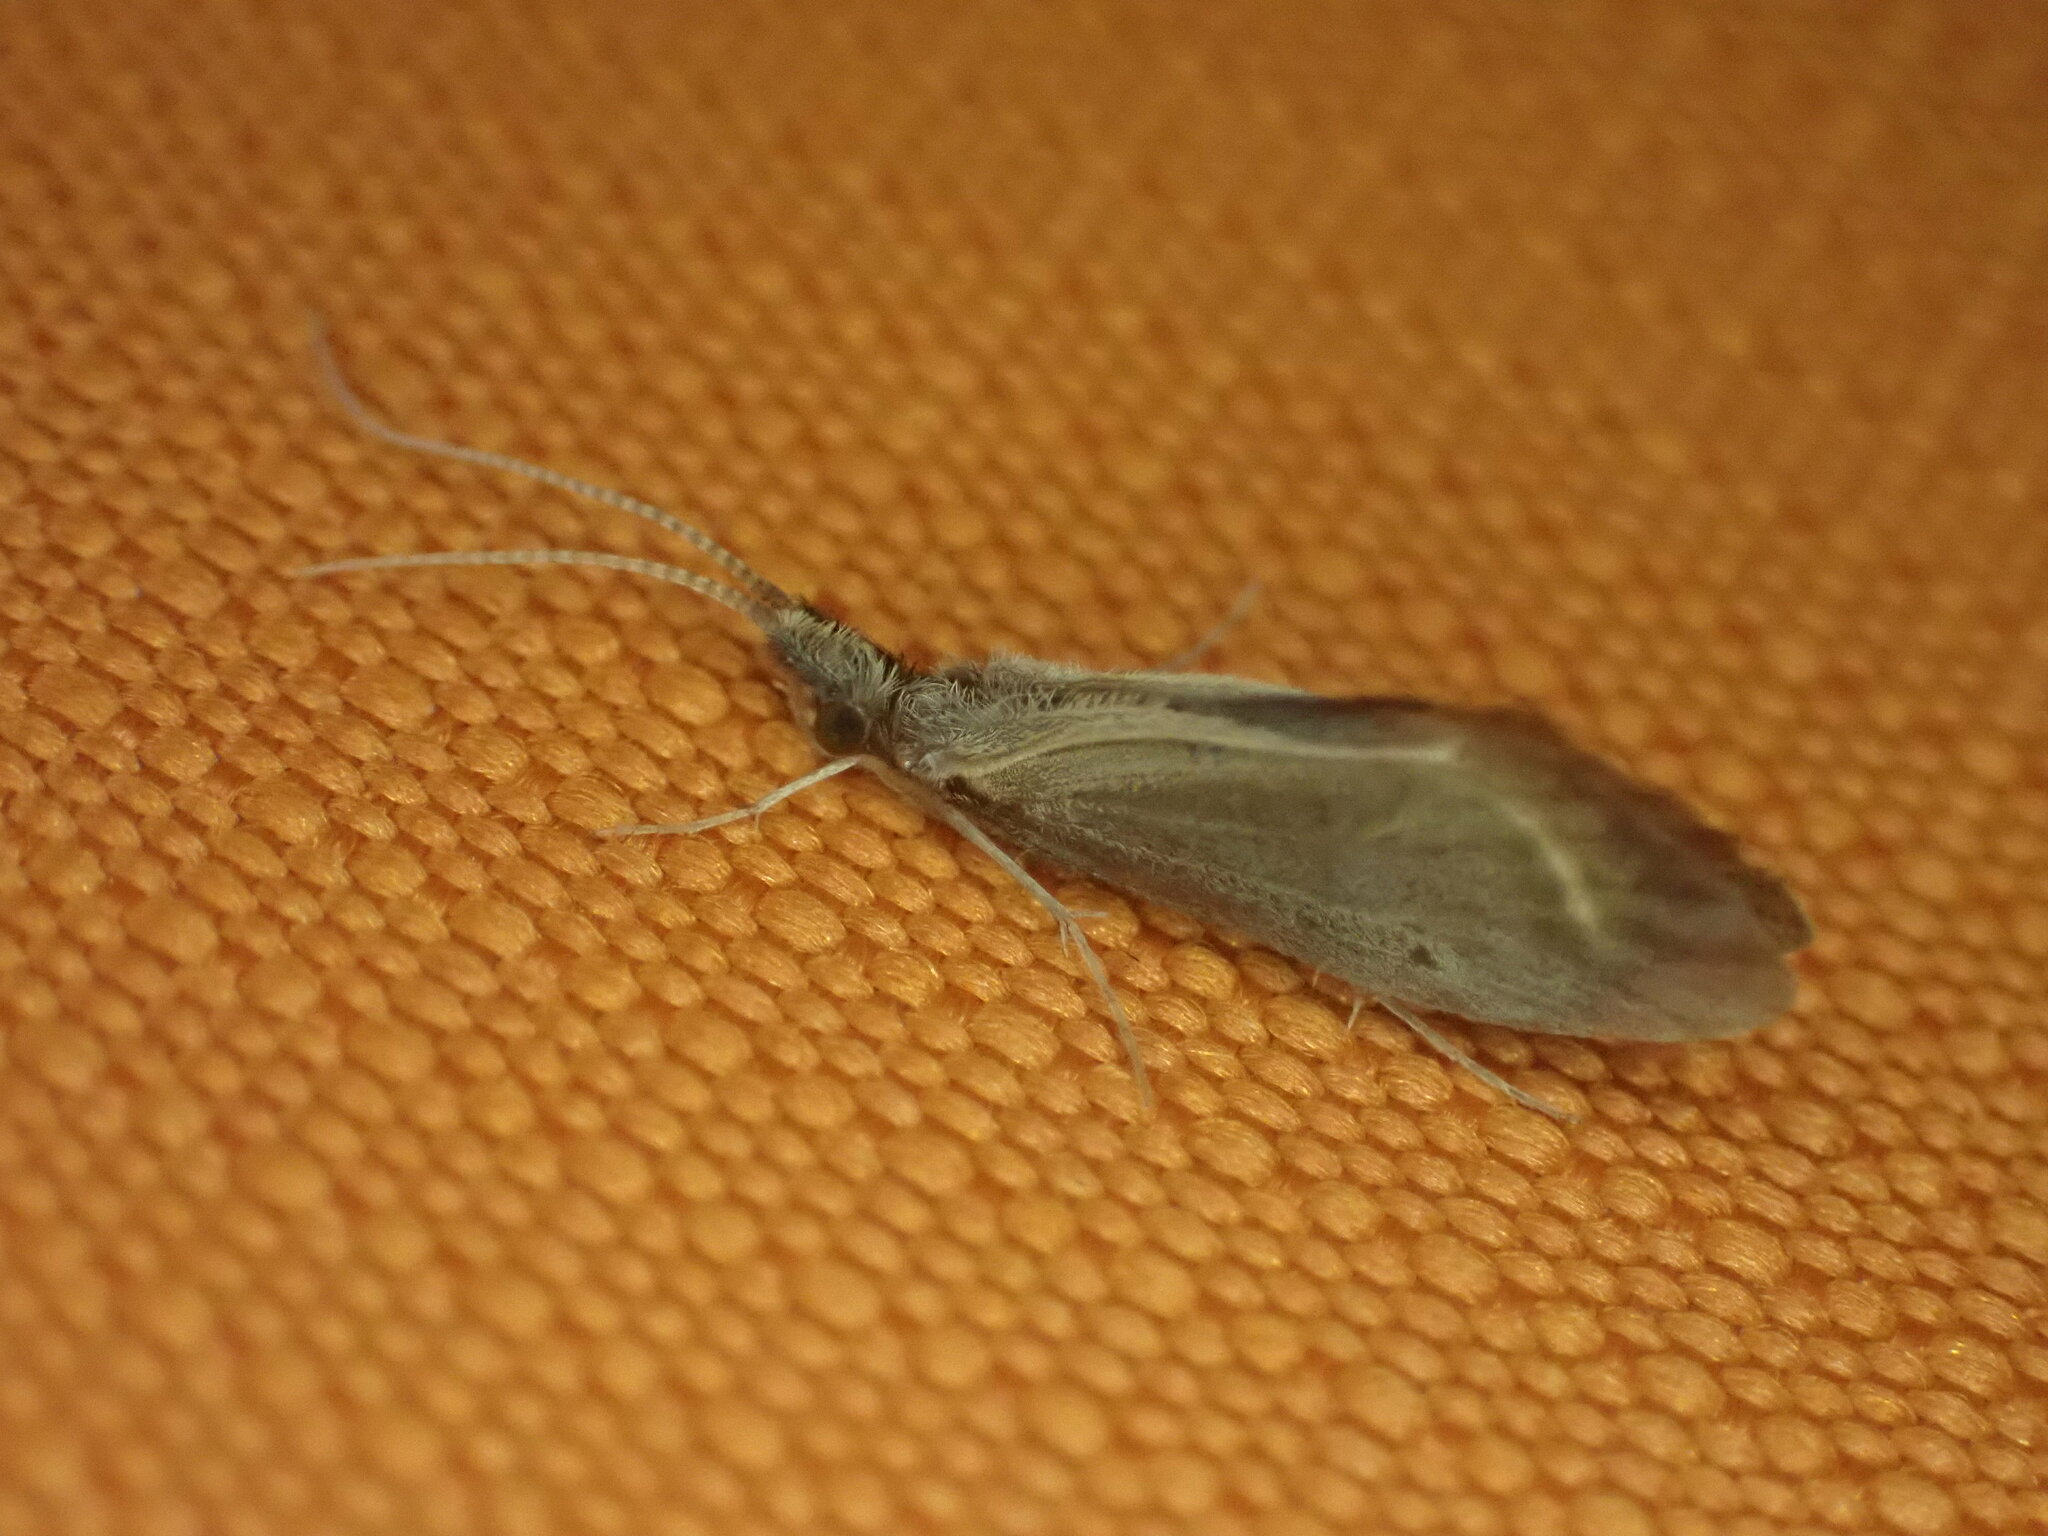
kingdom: Animalia
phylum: Arthropoda
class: Insecta
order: Trichoptera
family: Conoesucidae
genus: Olinga
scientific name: Olinga feredayi
